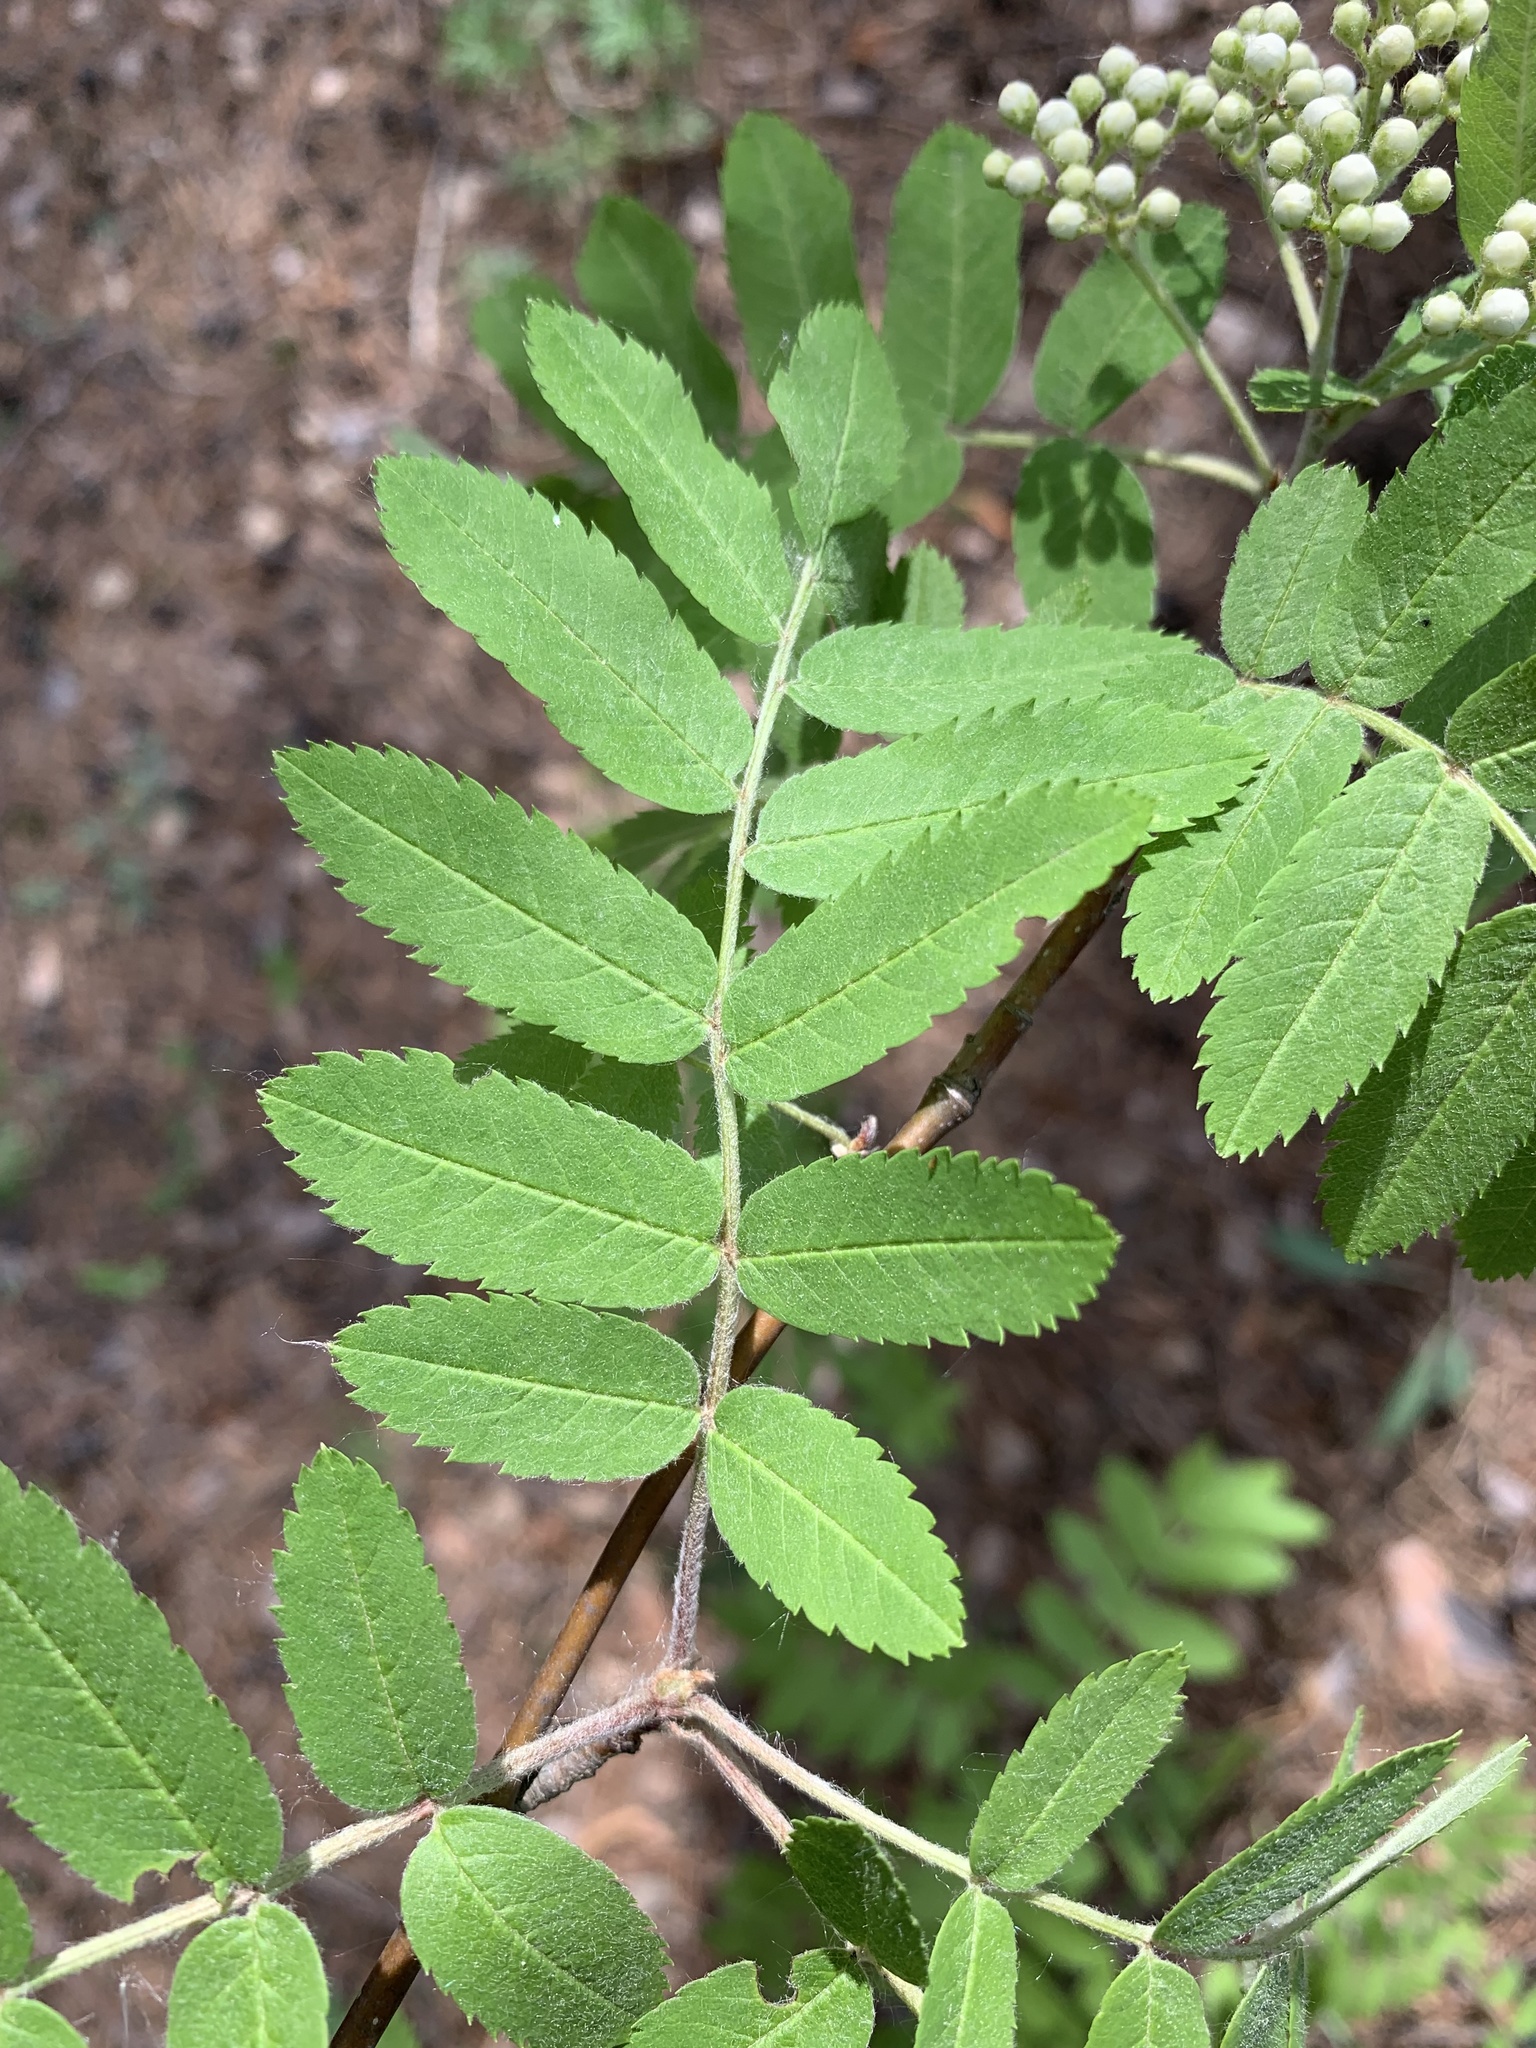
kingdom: Plantae
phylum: Tracheophyta
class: Magnoliopsida
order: Rosales
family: Rosaceae
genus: Sorbus
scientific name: Sorbus aucuparia
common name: Rowan
